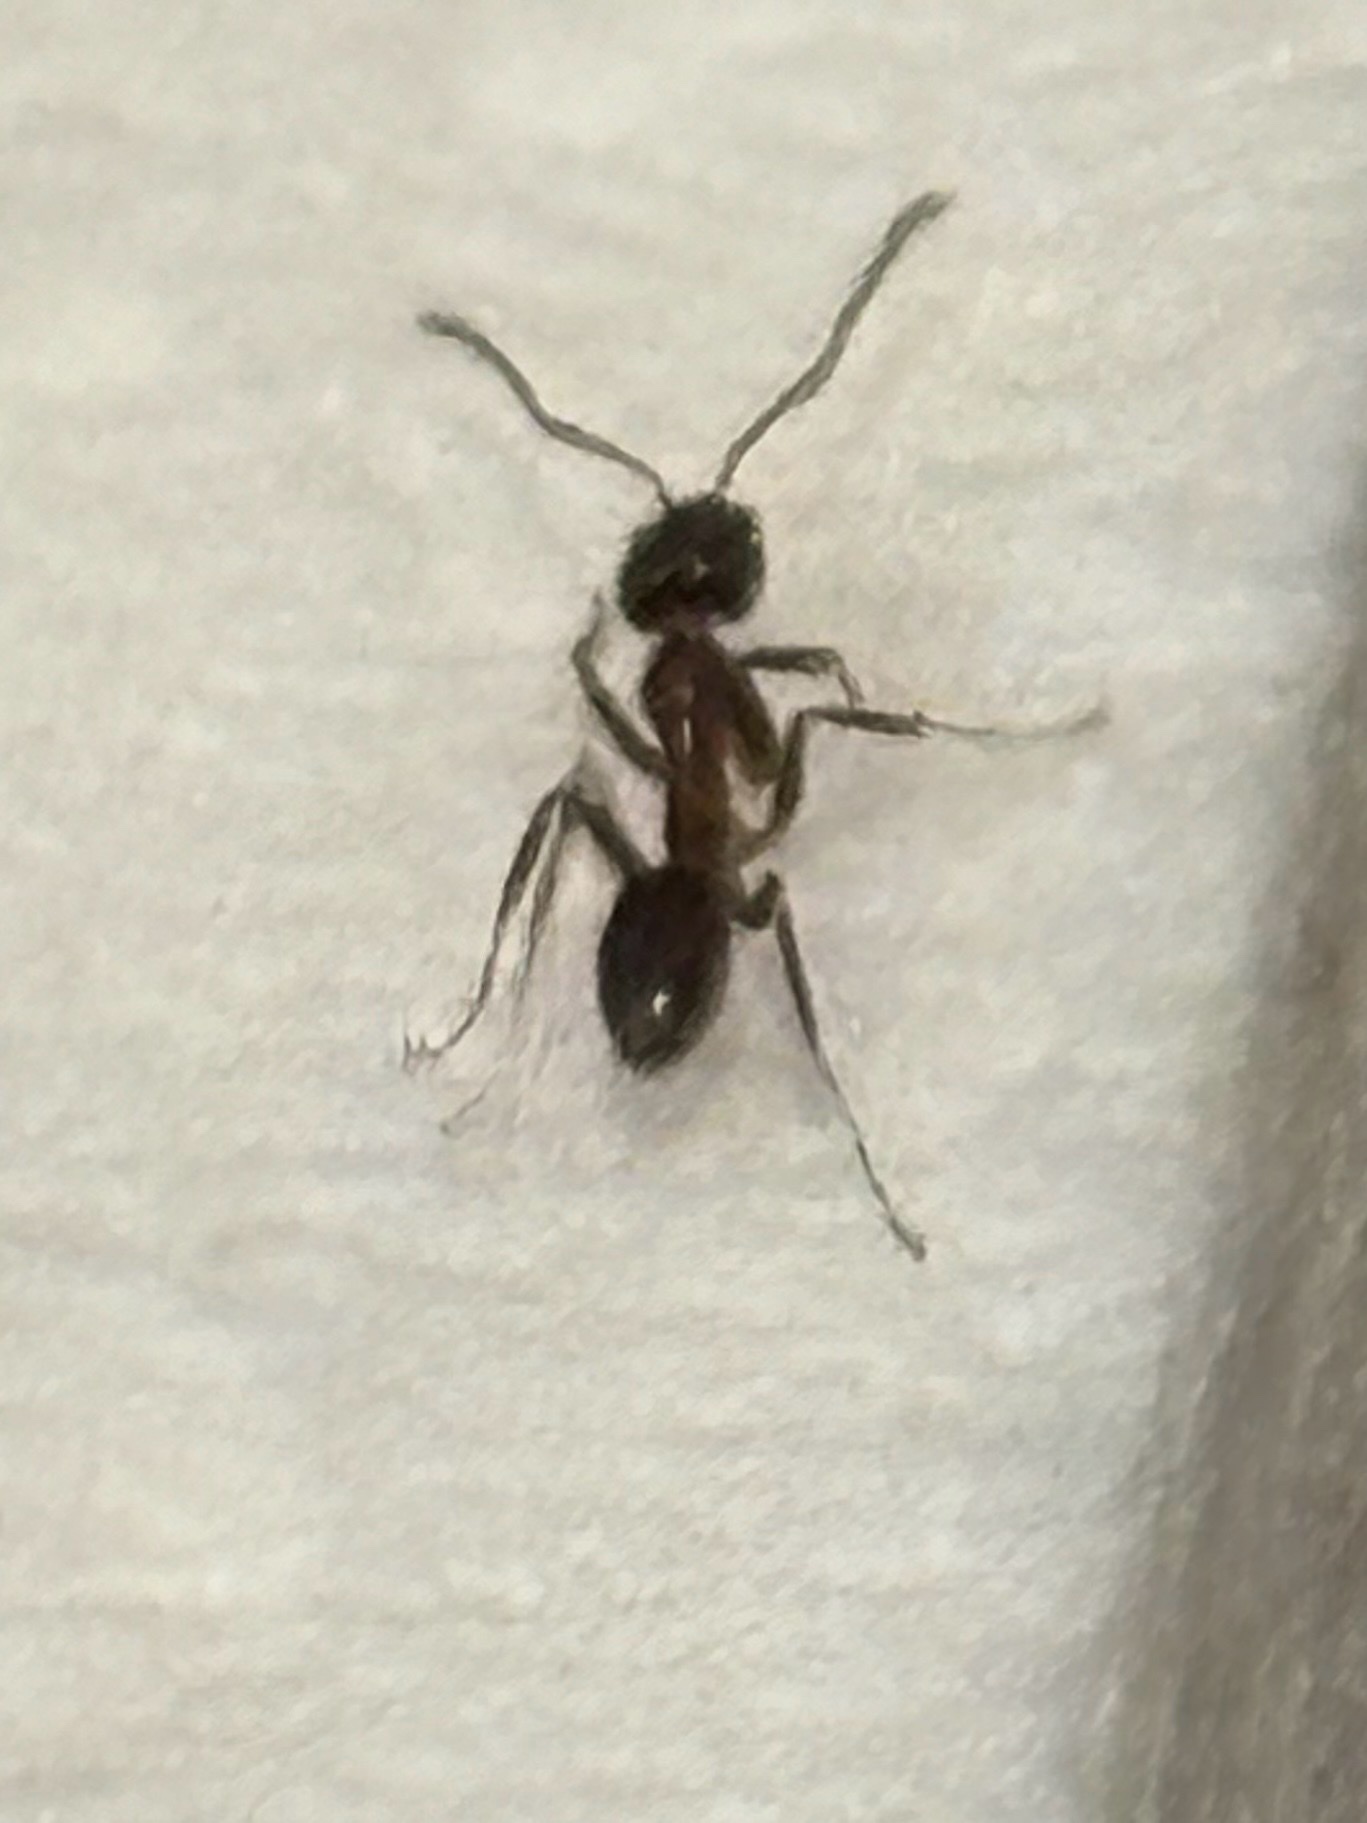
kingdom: Animalia
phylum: Arthropoda
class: Insecta
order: Hymenoptera
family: Formicidae
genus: Linepithema
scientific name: Linepithema humile
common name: Argentine ant
